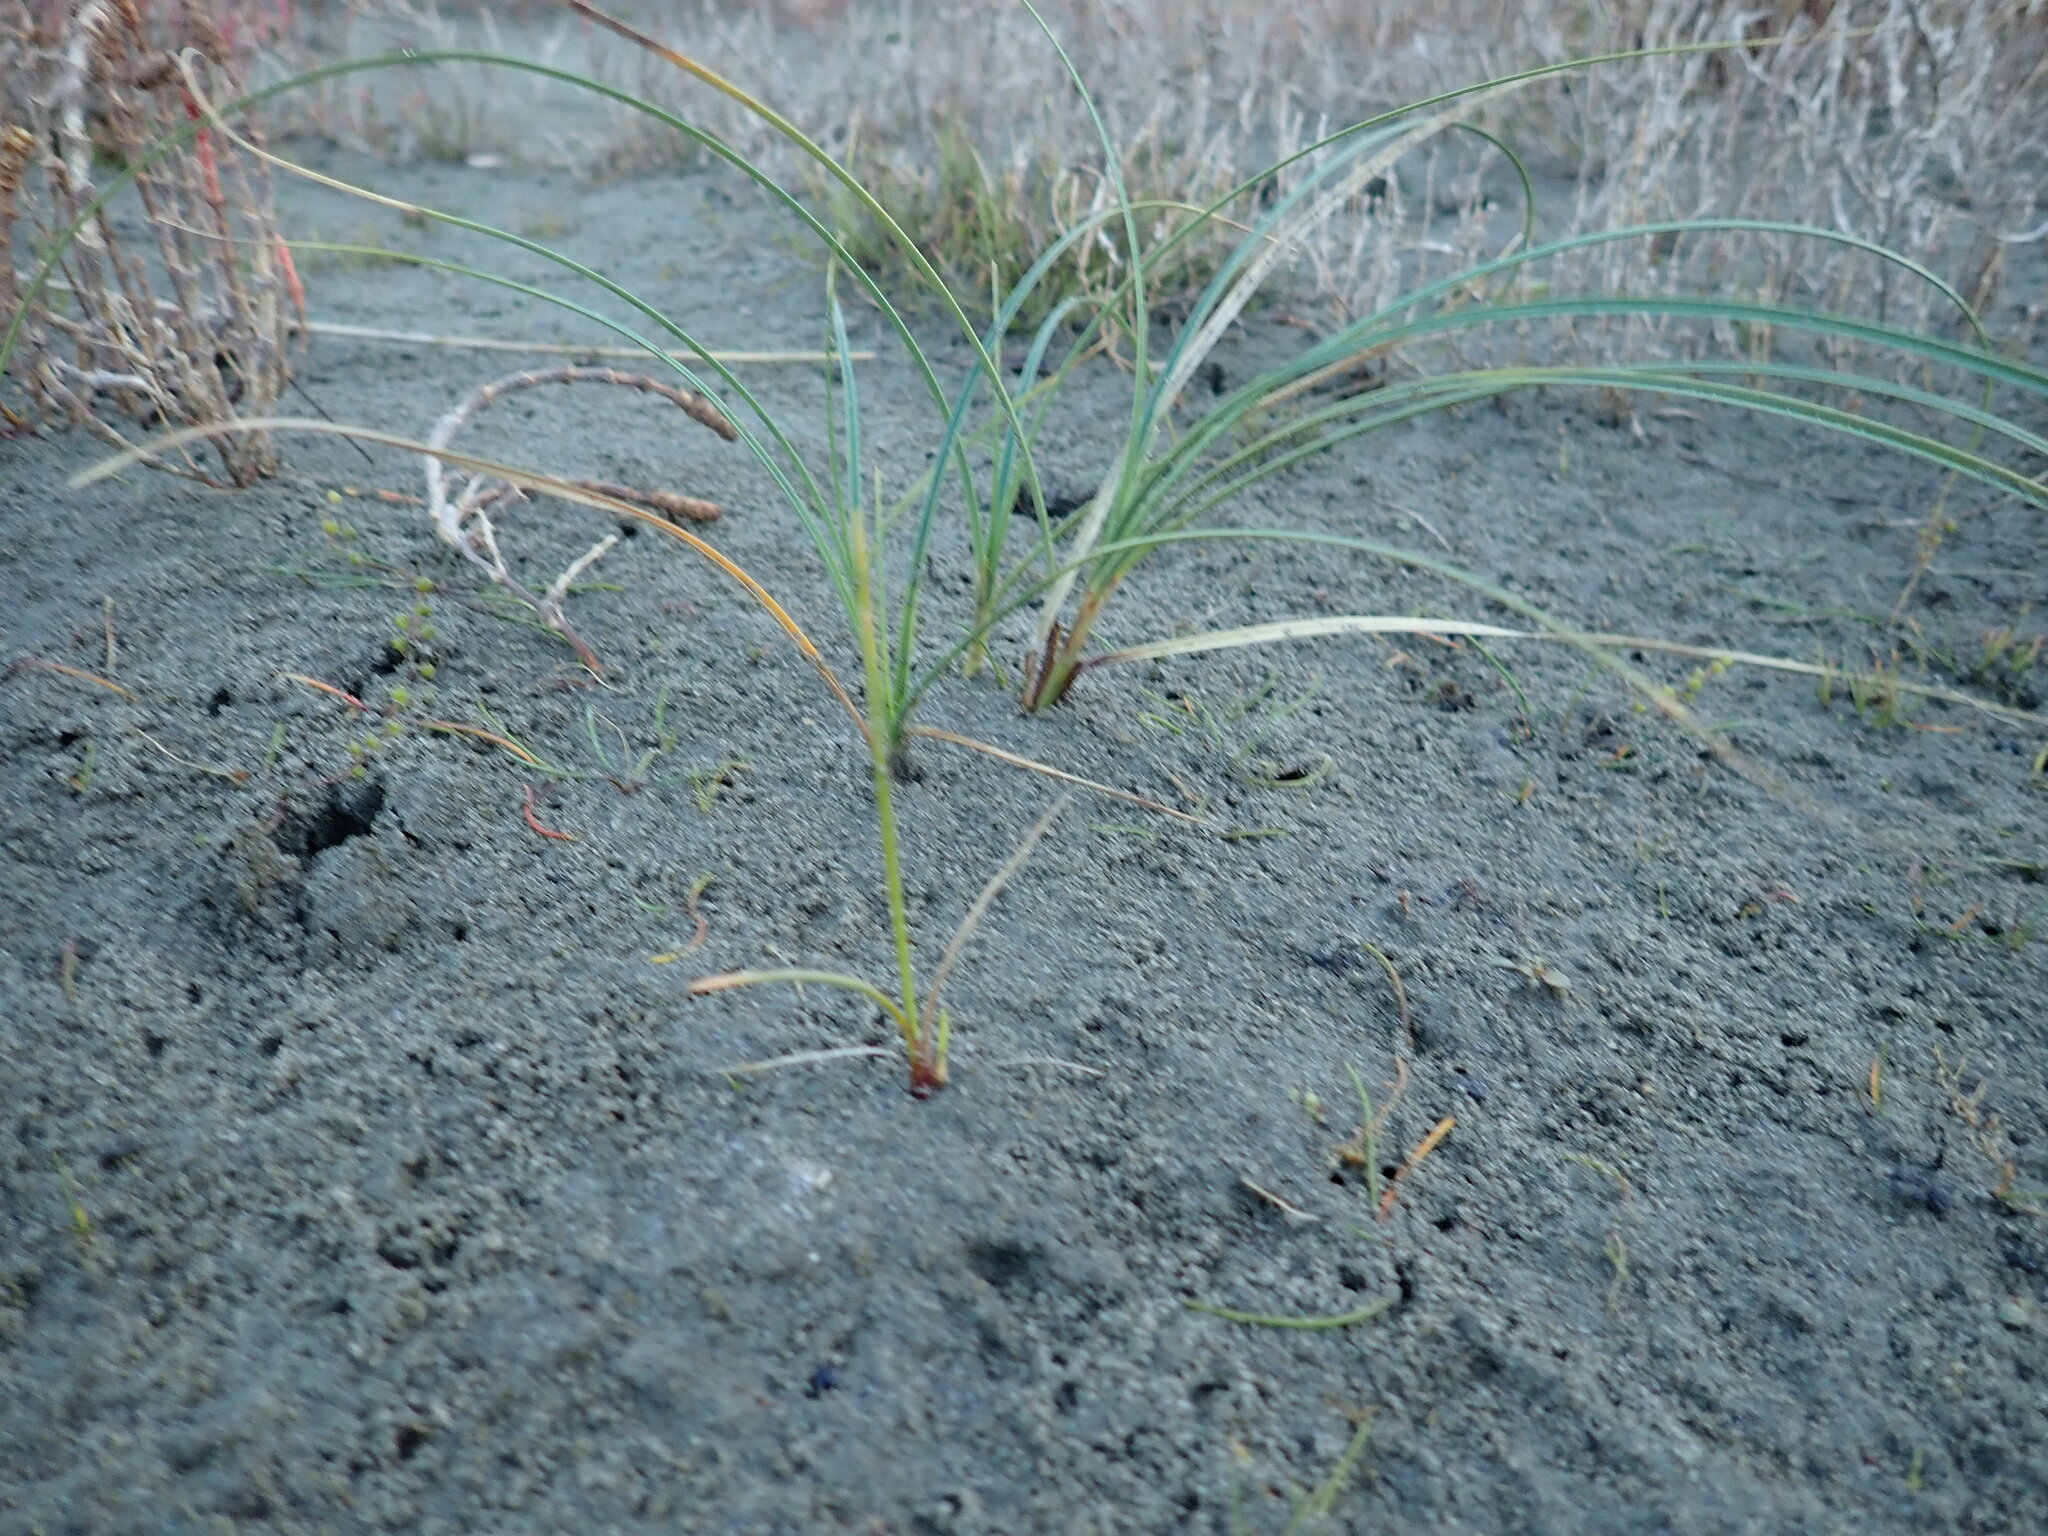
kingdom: Plantae
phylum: Tracheophyta
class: Liliopsida
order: Poales
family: Cyperaceae
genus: Carex
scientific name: Carex pumila
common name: Dwarf sedge
